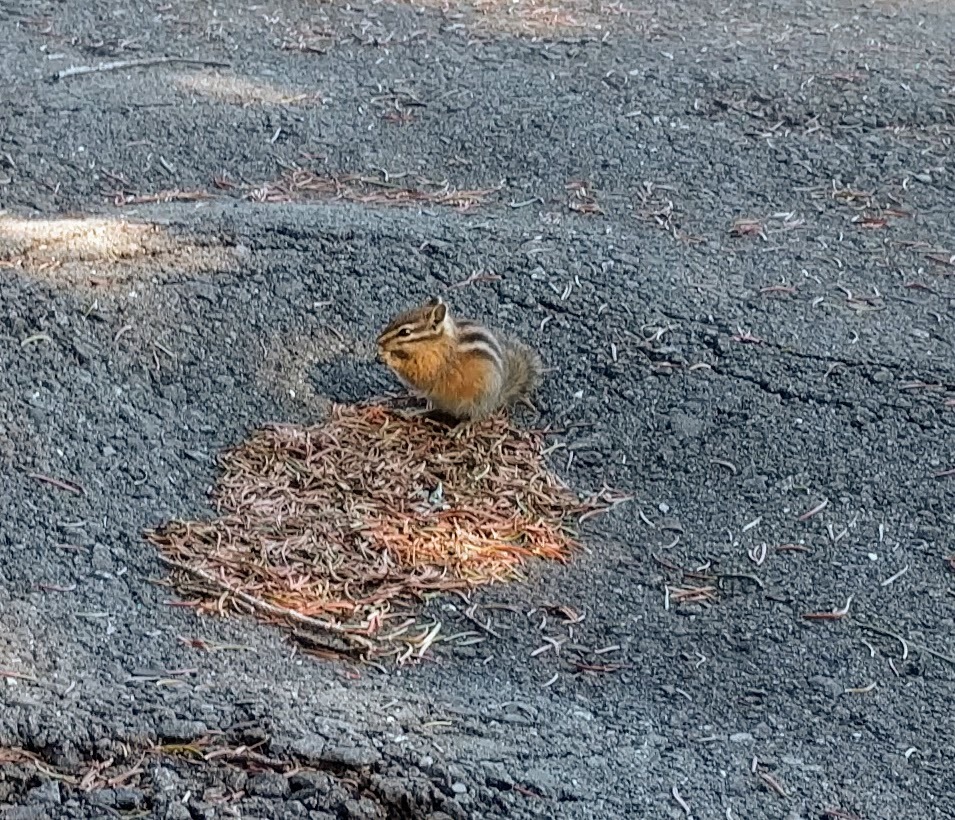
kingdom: Animalia
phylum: Chordata
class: Mammalia
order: Rodentia
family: Sciuridae
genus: Tamias
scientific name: Tamias amoenus
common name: Yellow-pine chipmunk
